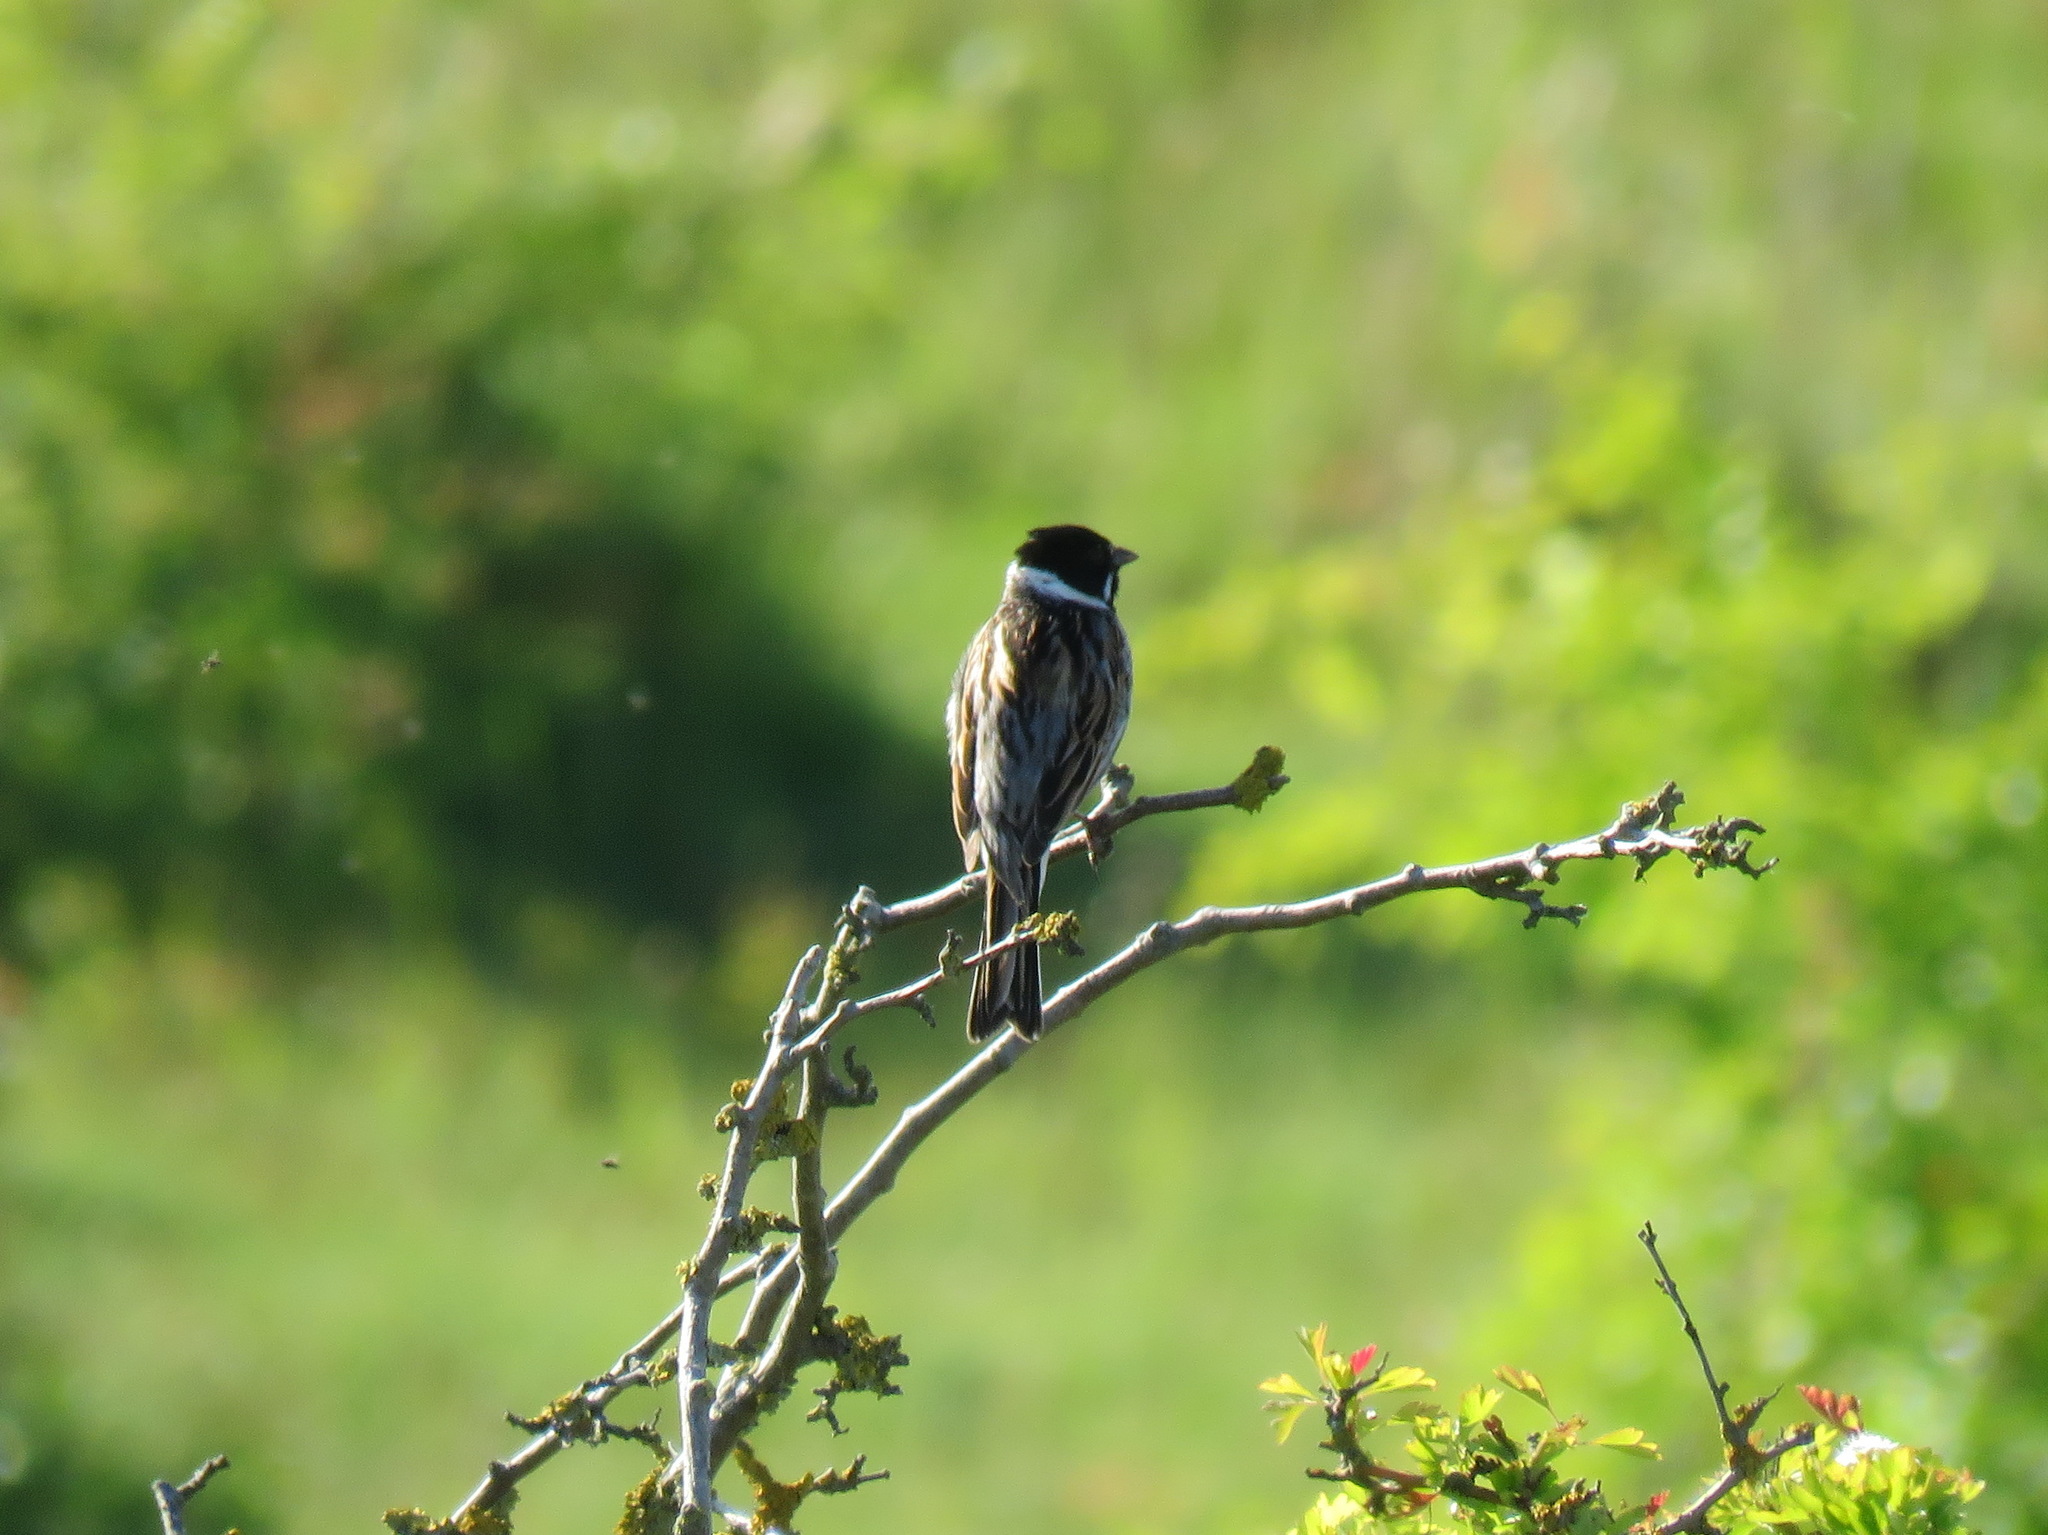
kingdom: Animalia
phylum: Chordata
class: Aves
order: Passeriformes
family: Emberizidae
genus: Emberiza
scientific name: Emberiza schoeniclus
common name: Reed bunting
